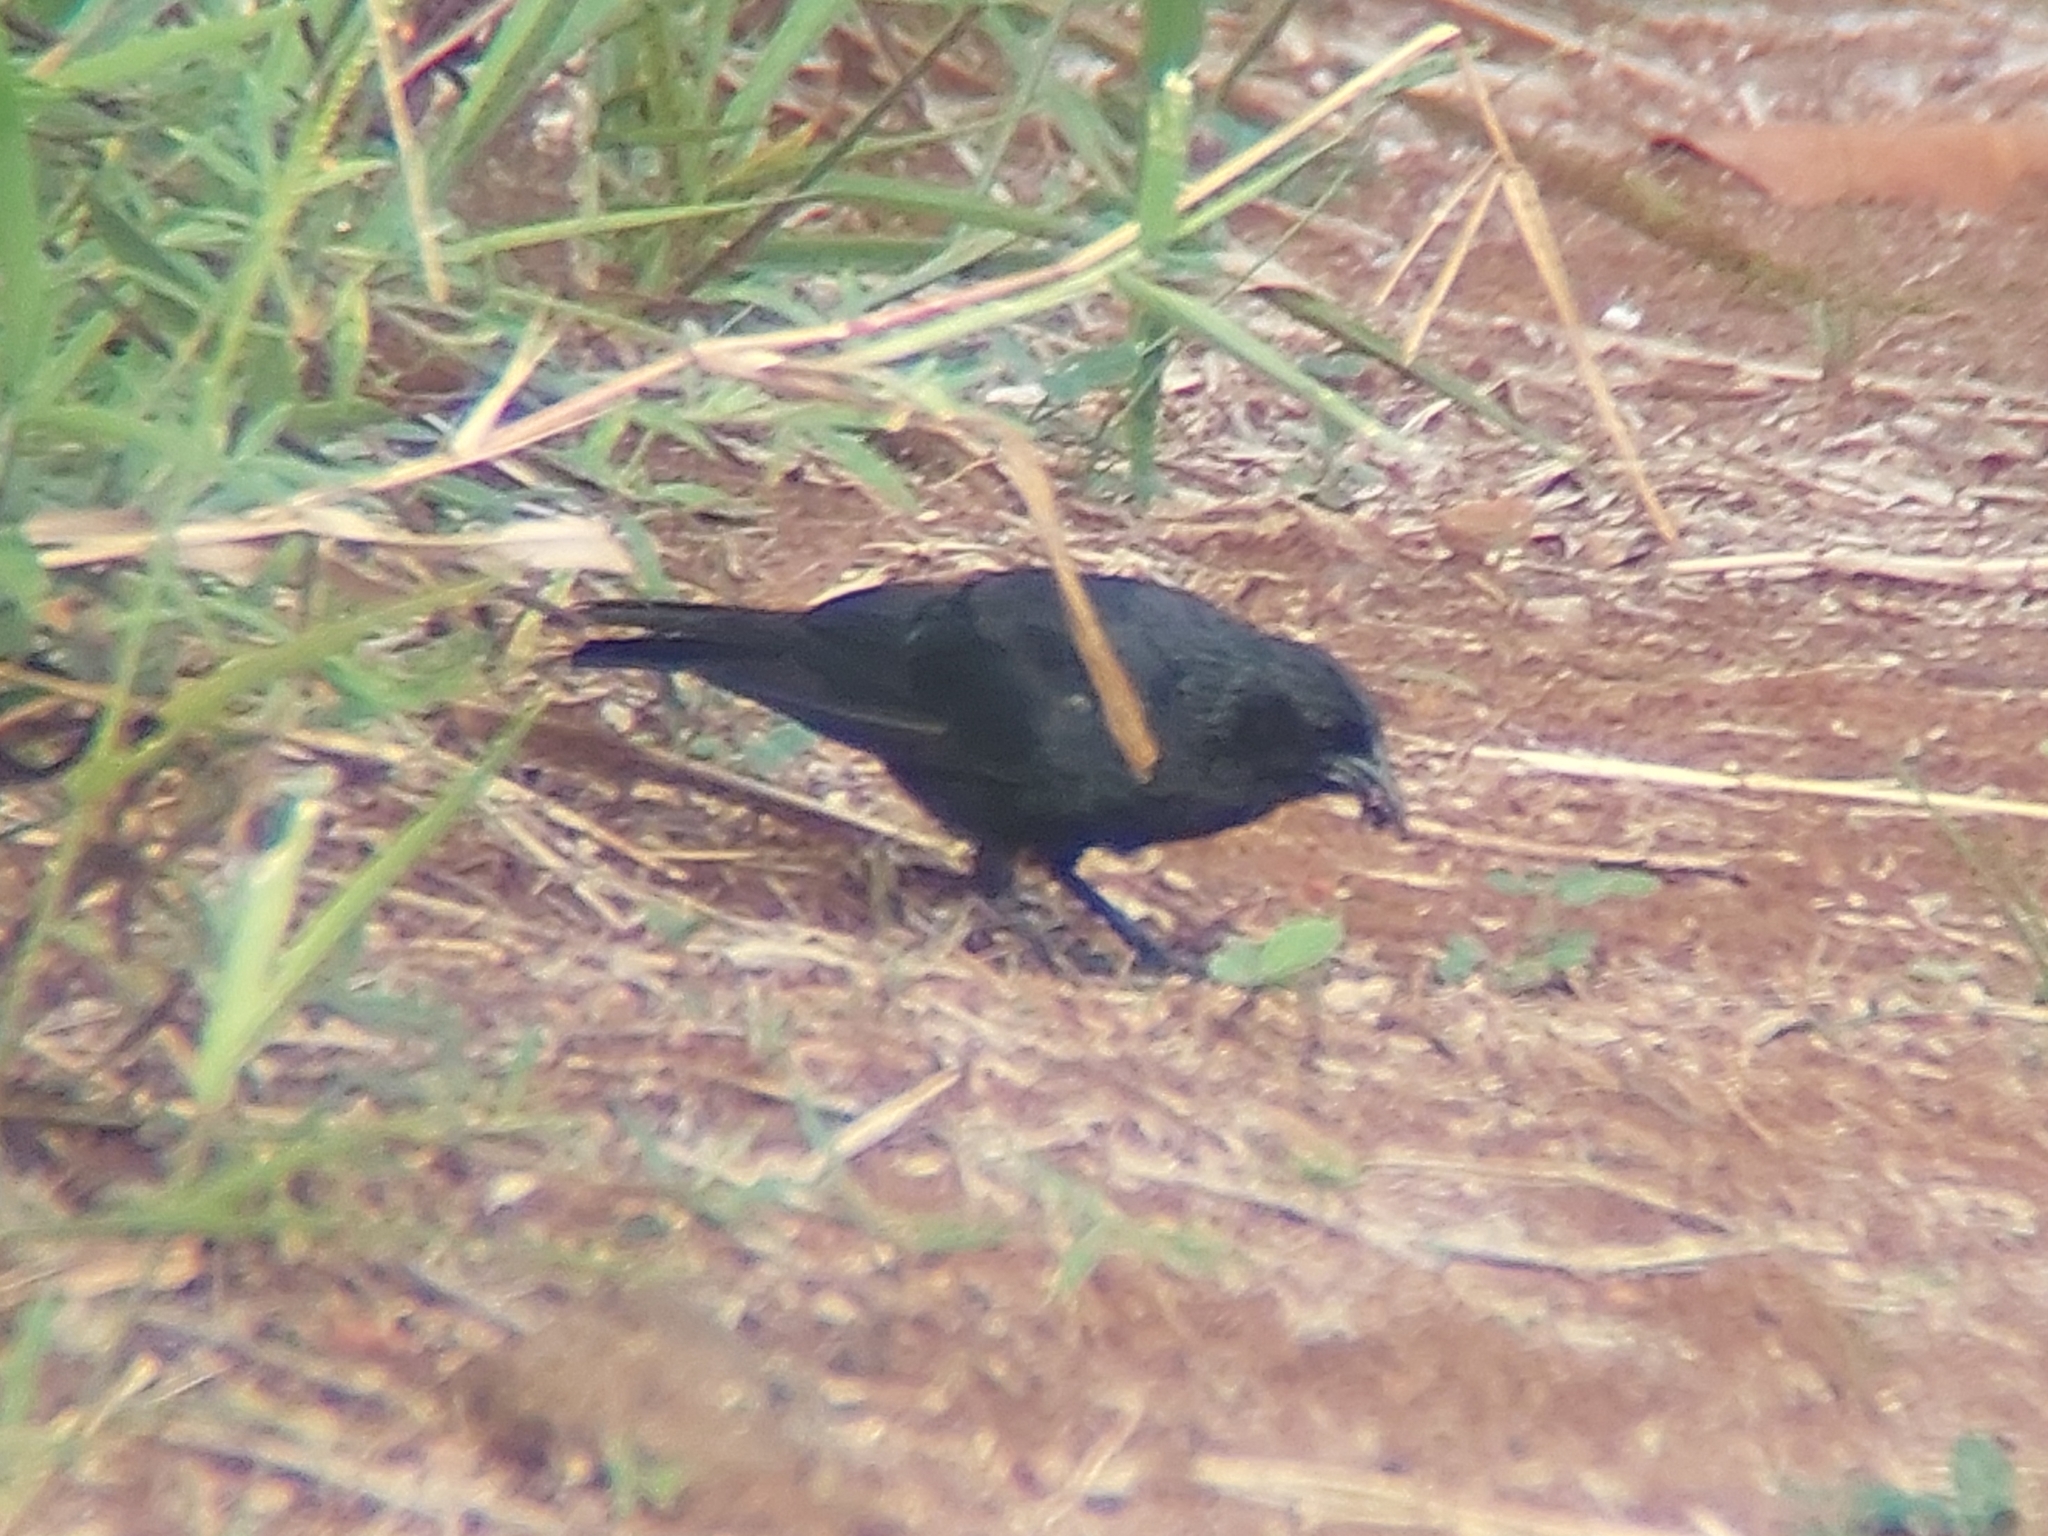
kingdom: Animalia
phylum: Chordata
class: Aves
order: Passeriformes
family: Icteridae
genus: Gnorimopsar
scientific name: Gnorimopsar chopi
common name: Chopi blackbird
